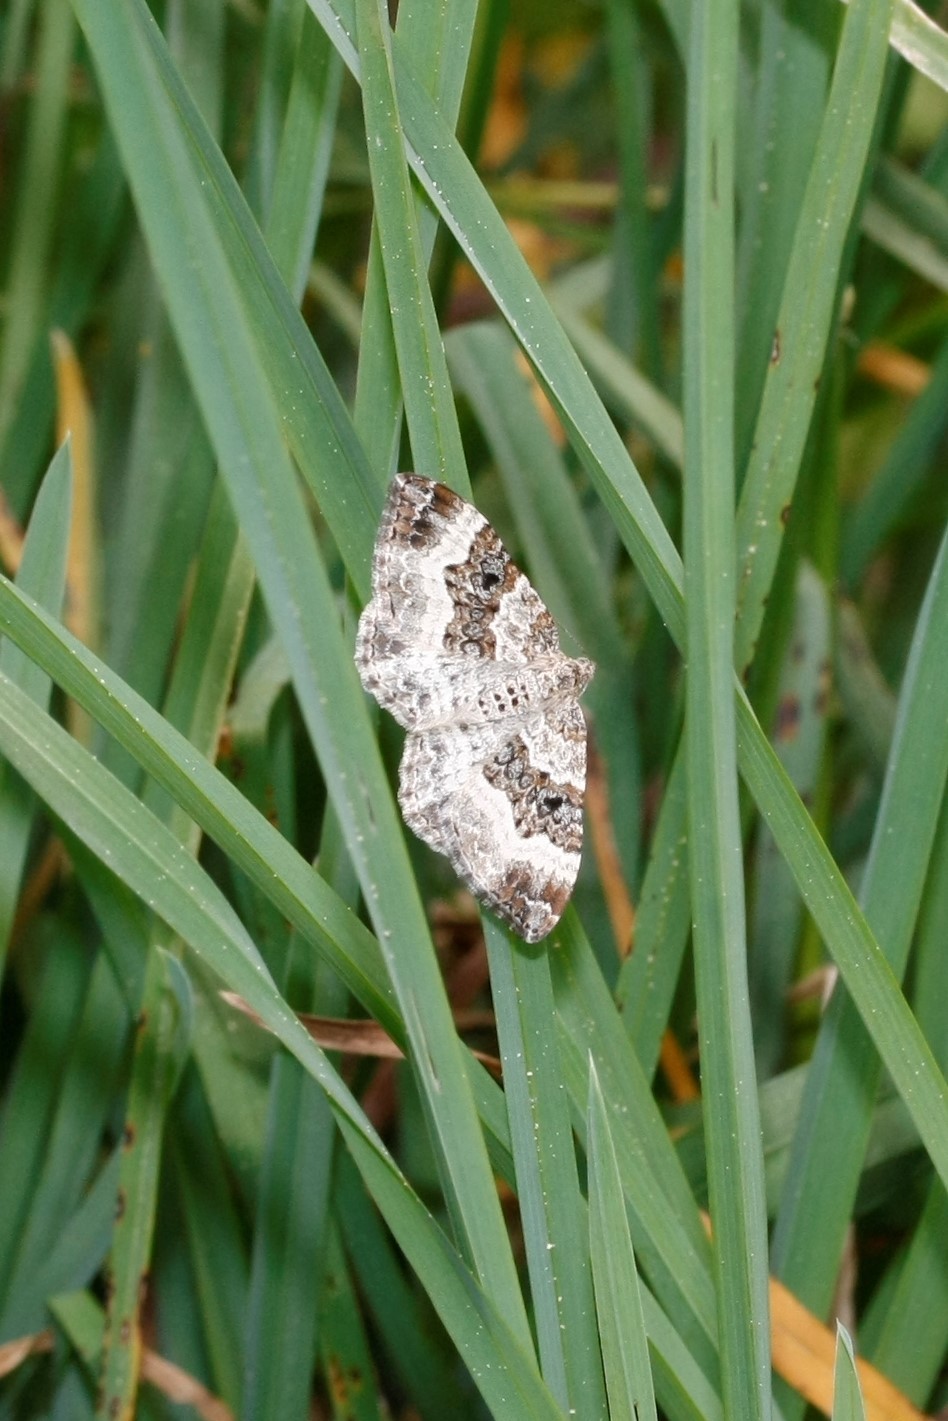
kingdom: Animalia
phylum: Arthropoda
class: Insecta
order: Lepidoptera
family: Geometridae
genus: Epirrhoe
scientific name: Epirrhoe alternata
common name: Common carpet
